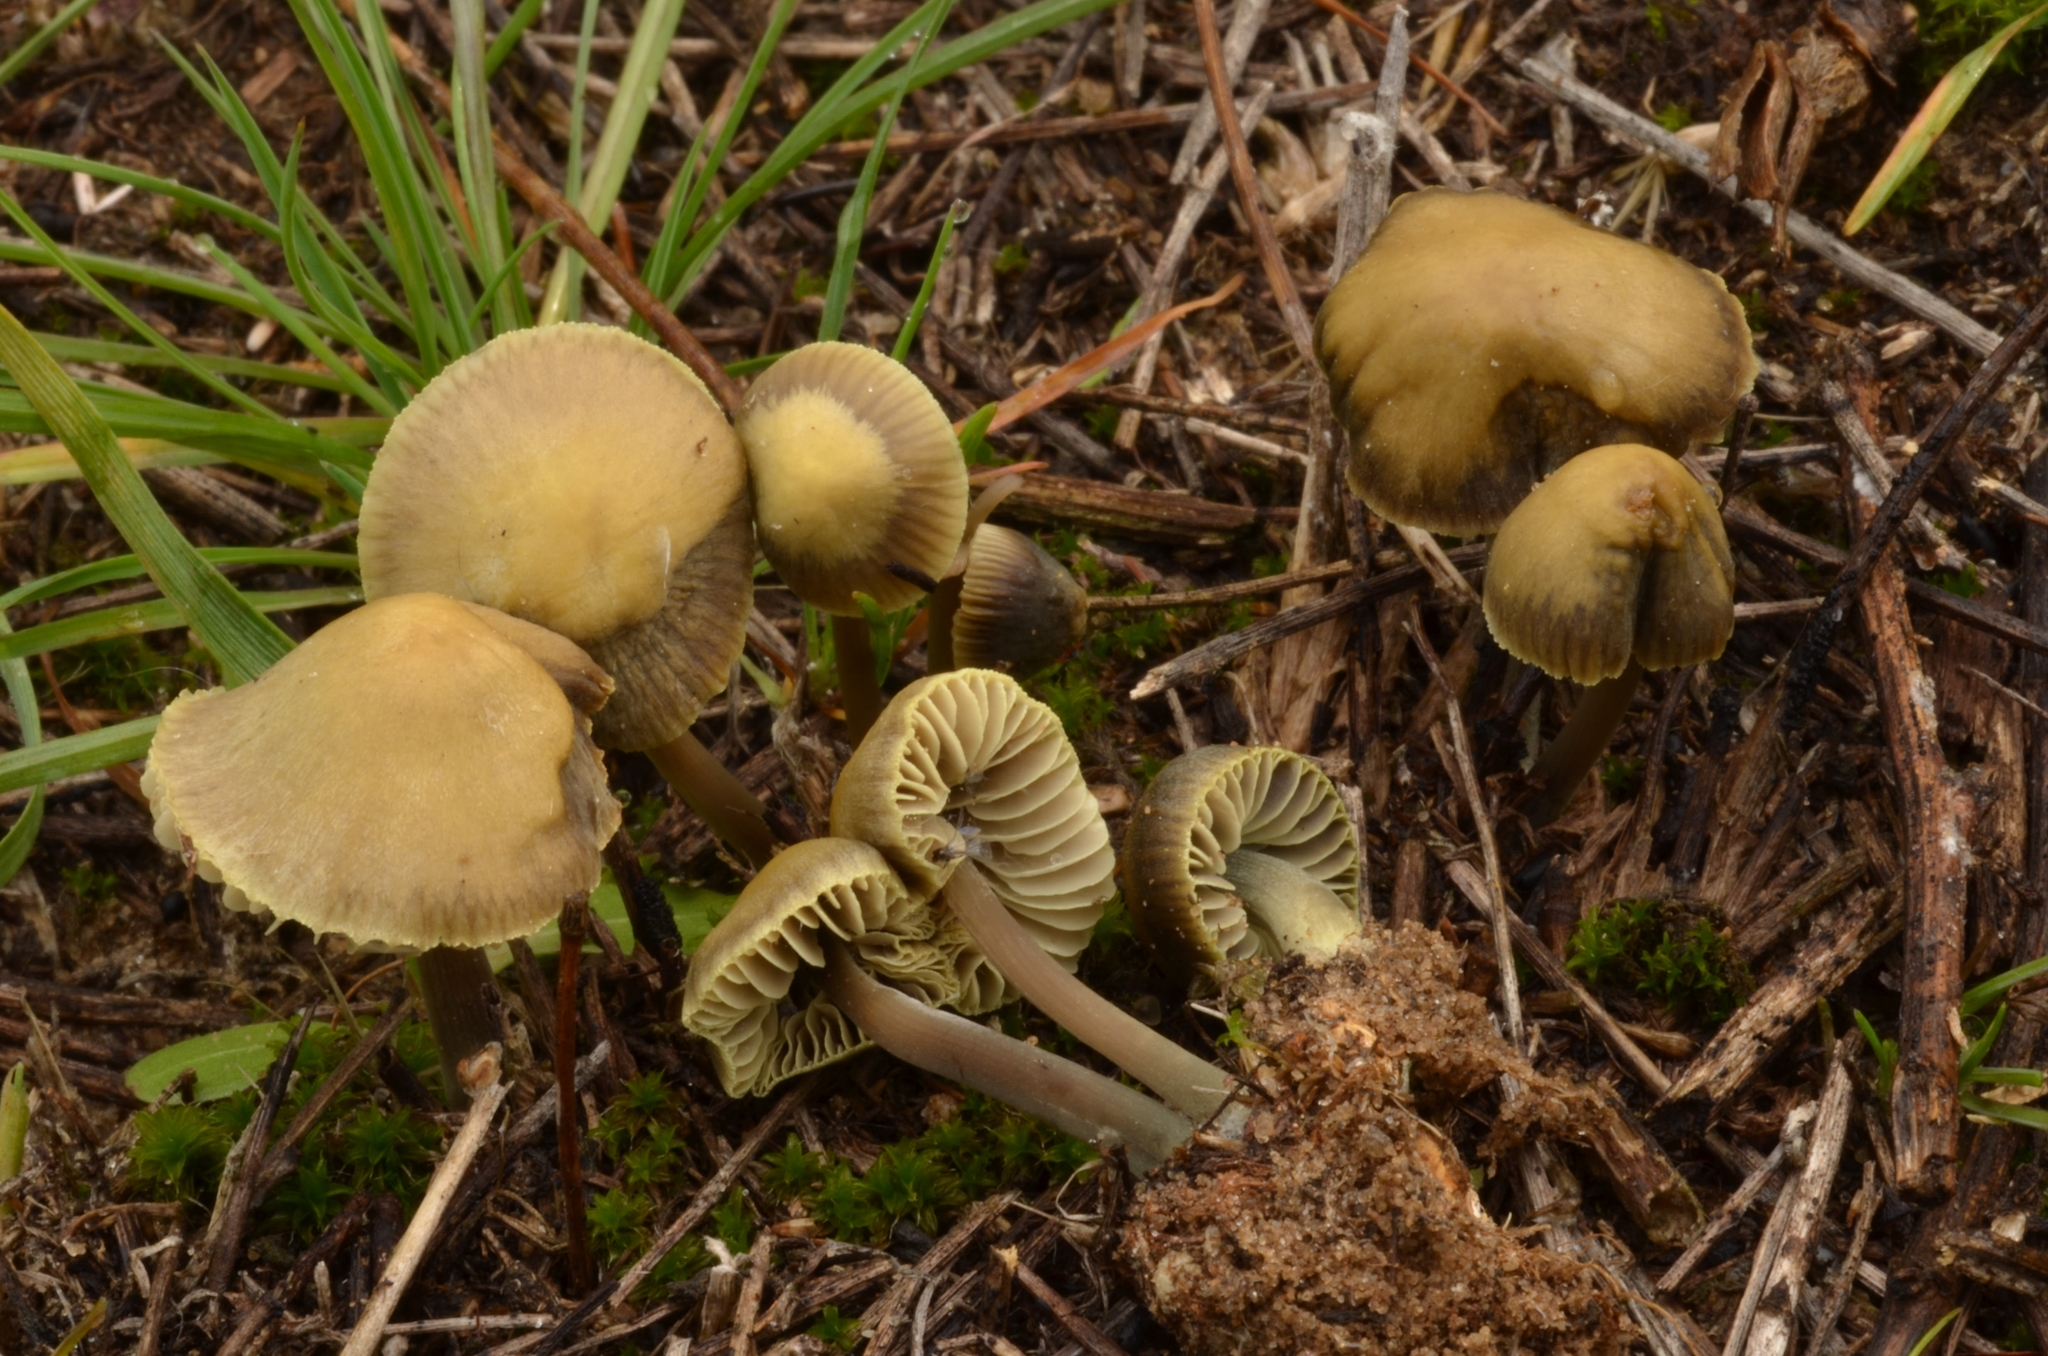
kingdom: Fungi
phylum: Basidiomycota
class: Agaricomycetes
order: Agaricales
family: Mycenaceae
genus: Mycena
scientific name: Mycena chlorantha
